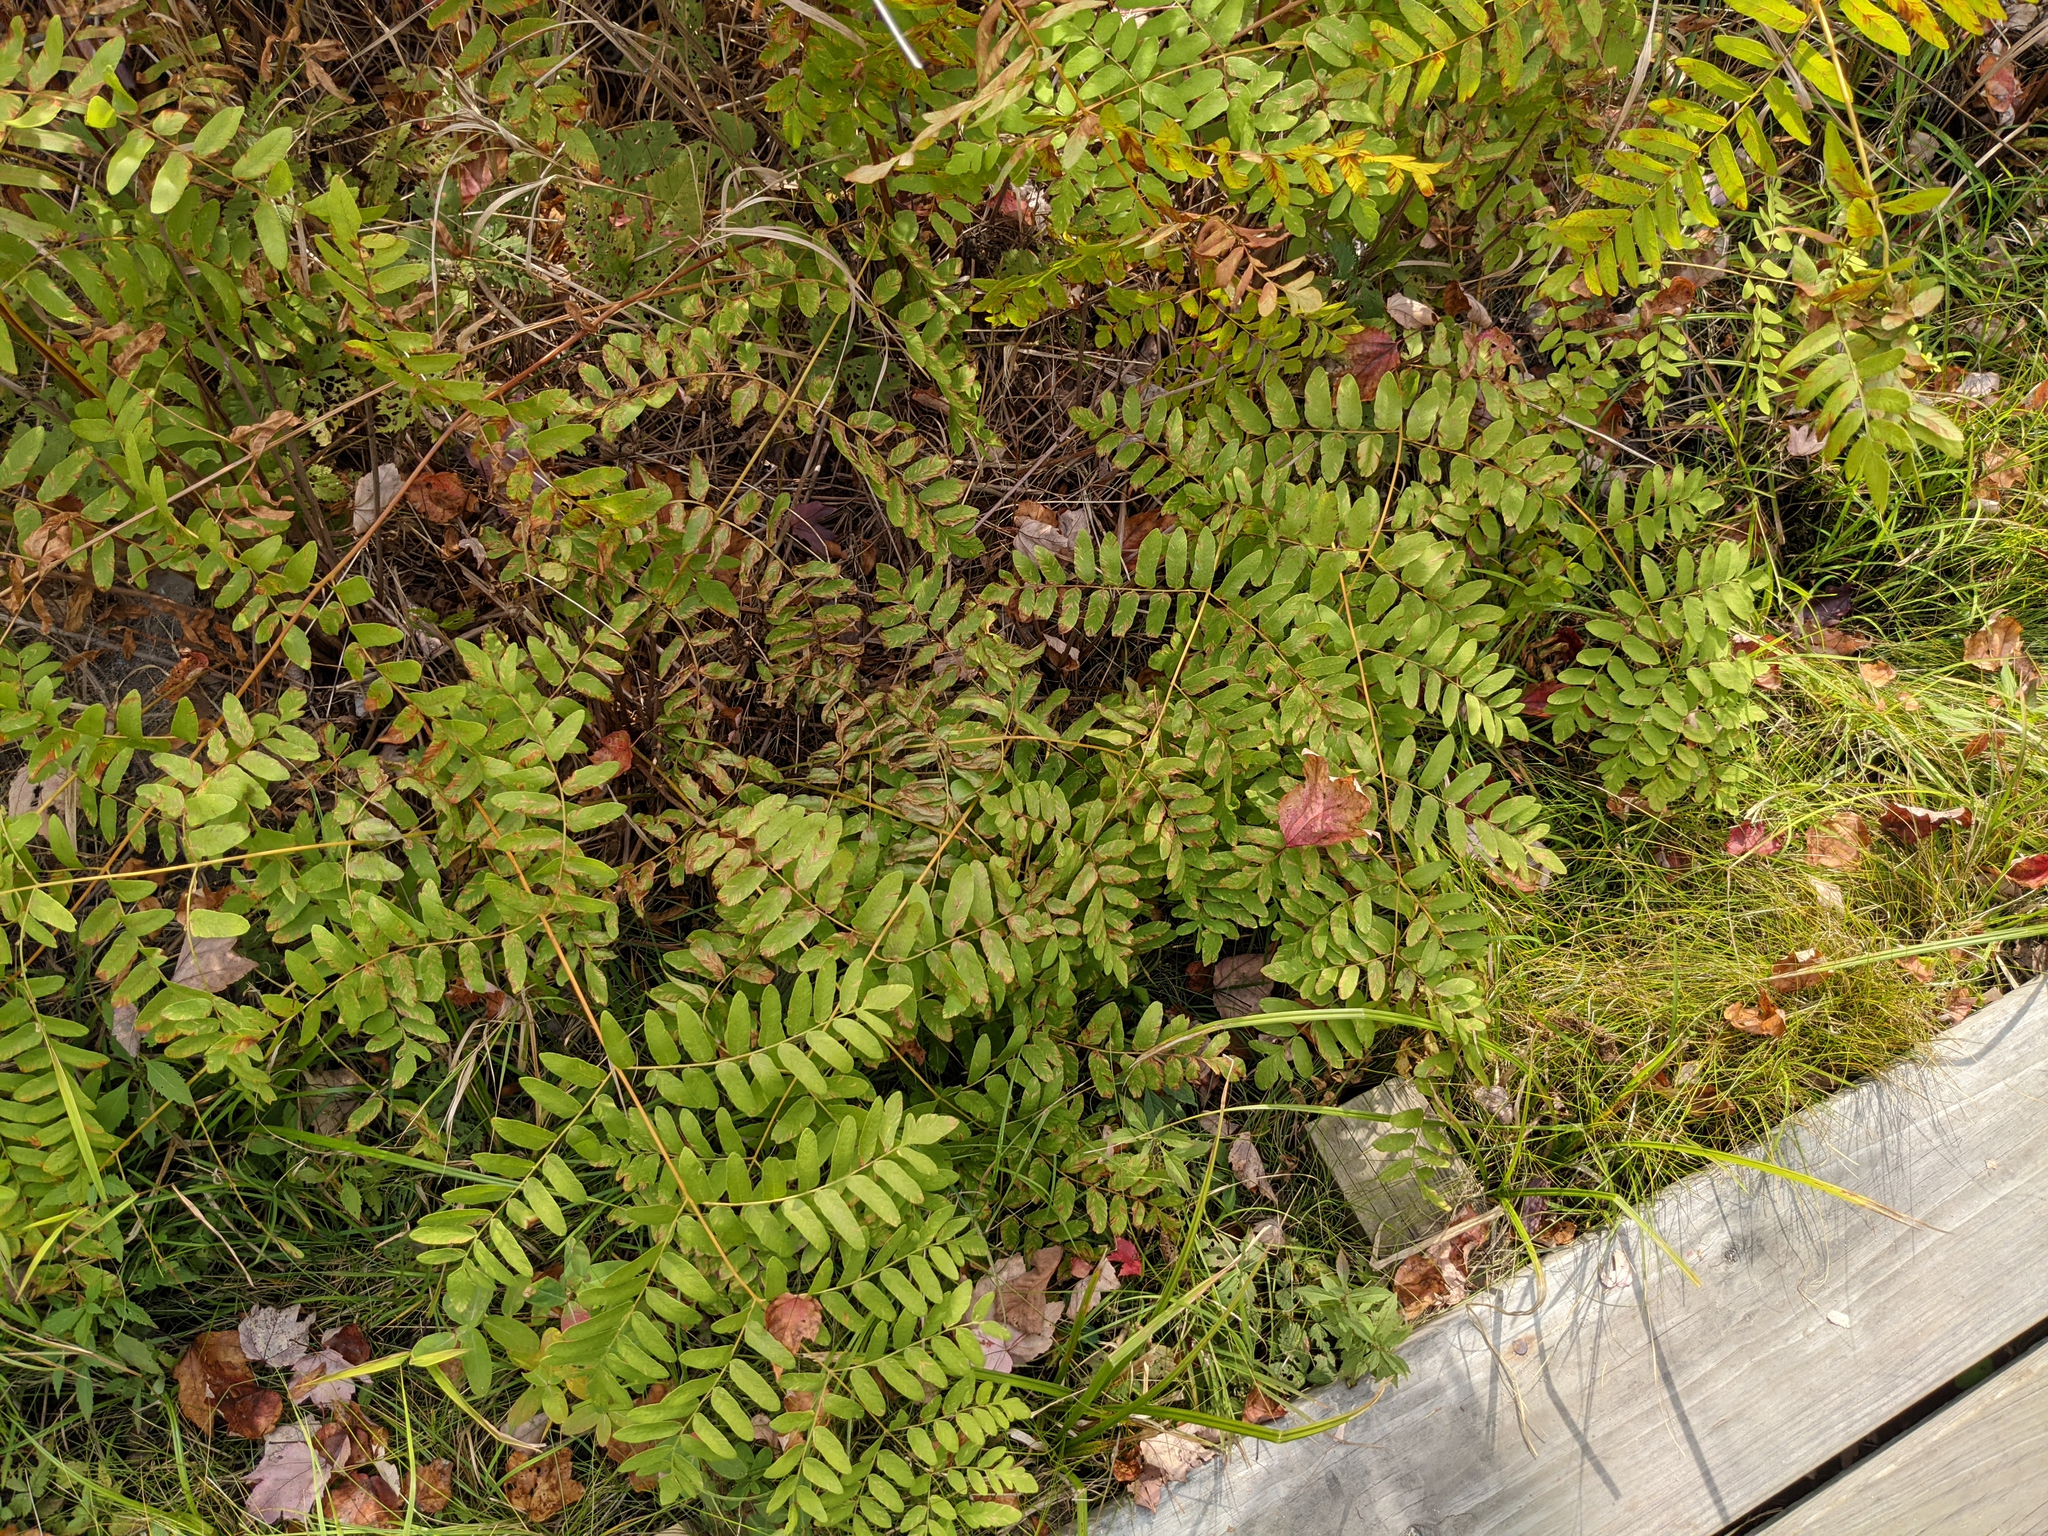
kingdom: Plantae
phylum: Tracheophyta
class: Polypodiopsida
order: Osmundales
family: Osmundaceae
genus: Osmunda
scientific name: Osmunda spectabilis
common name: American royal fern
